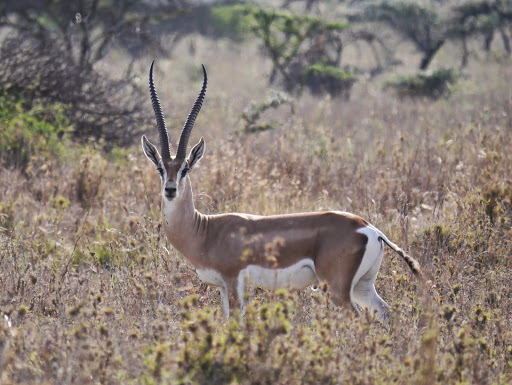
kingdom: Animalia
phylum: Chordata
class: Mammalia
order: Artiodactyla
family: Bovidae
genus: Nanger
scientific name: Nanger granti
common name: Grant's gazelle
